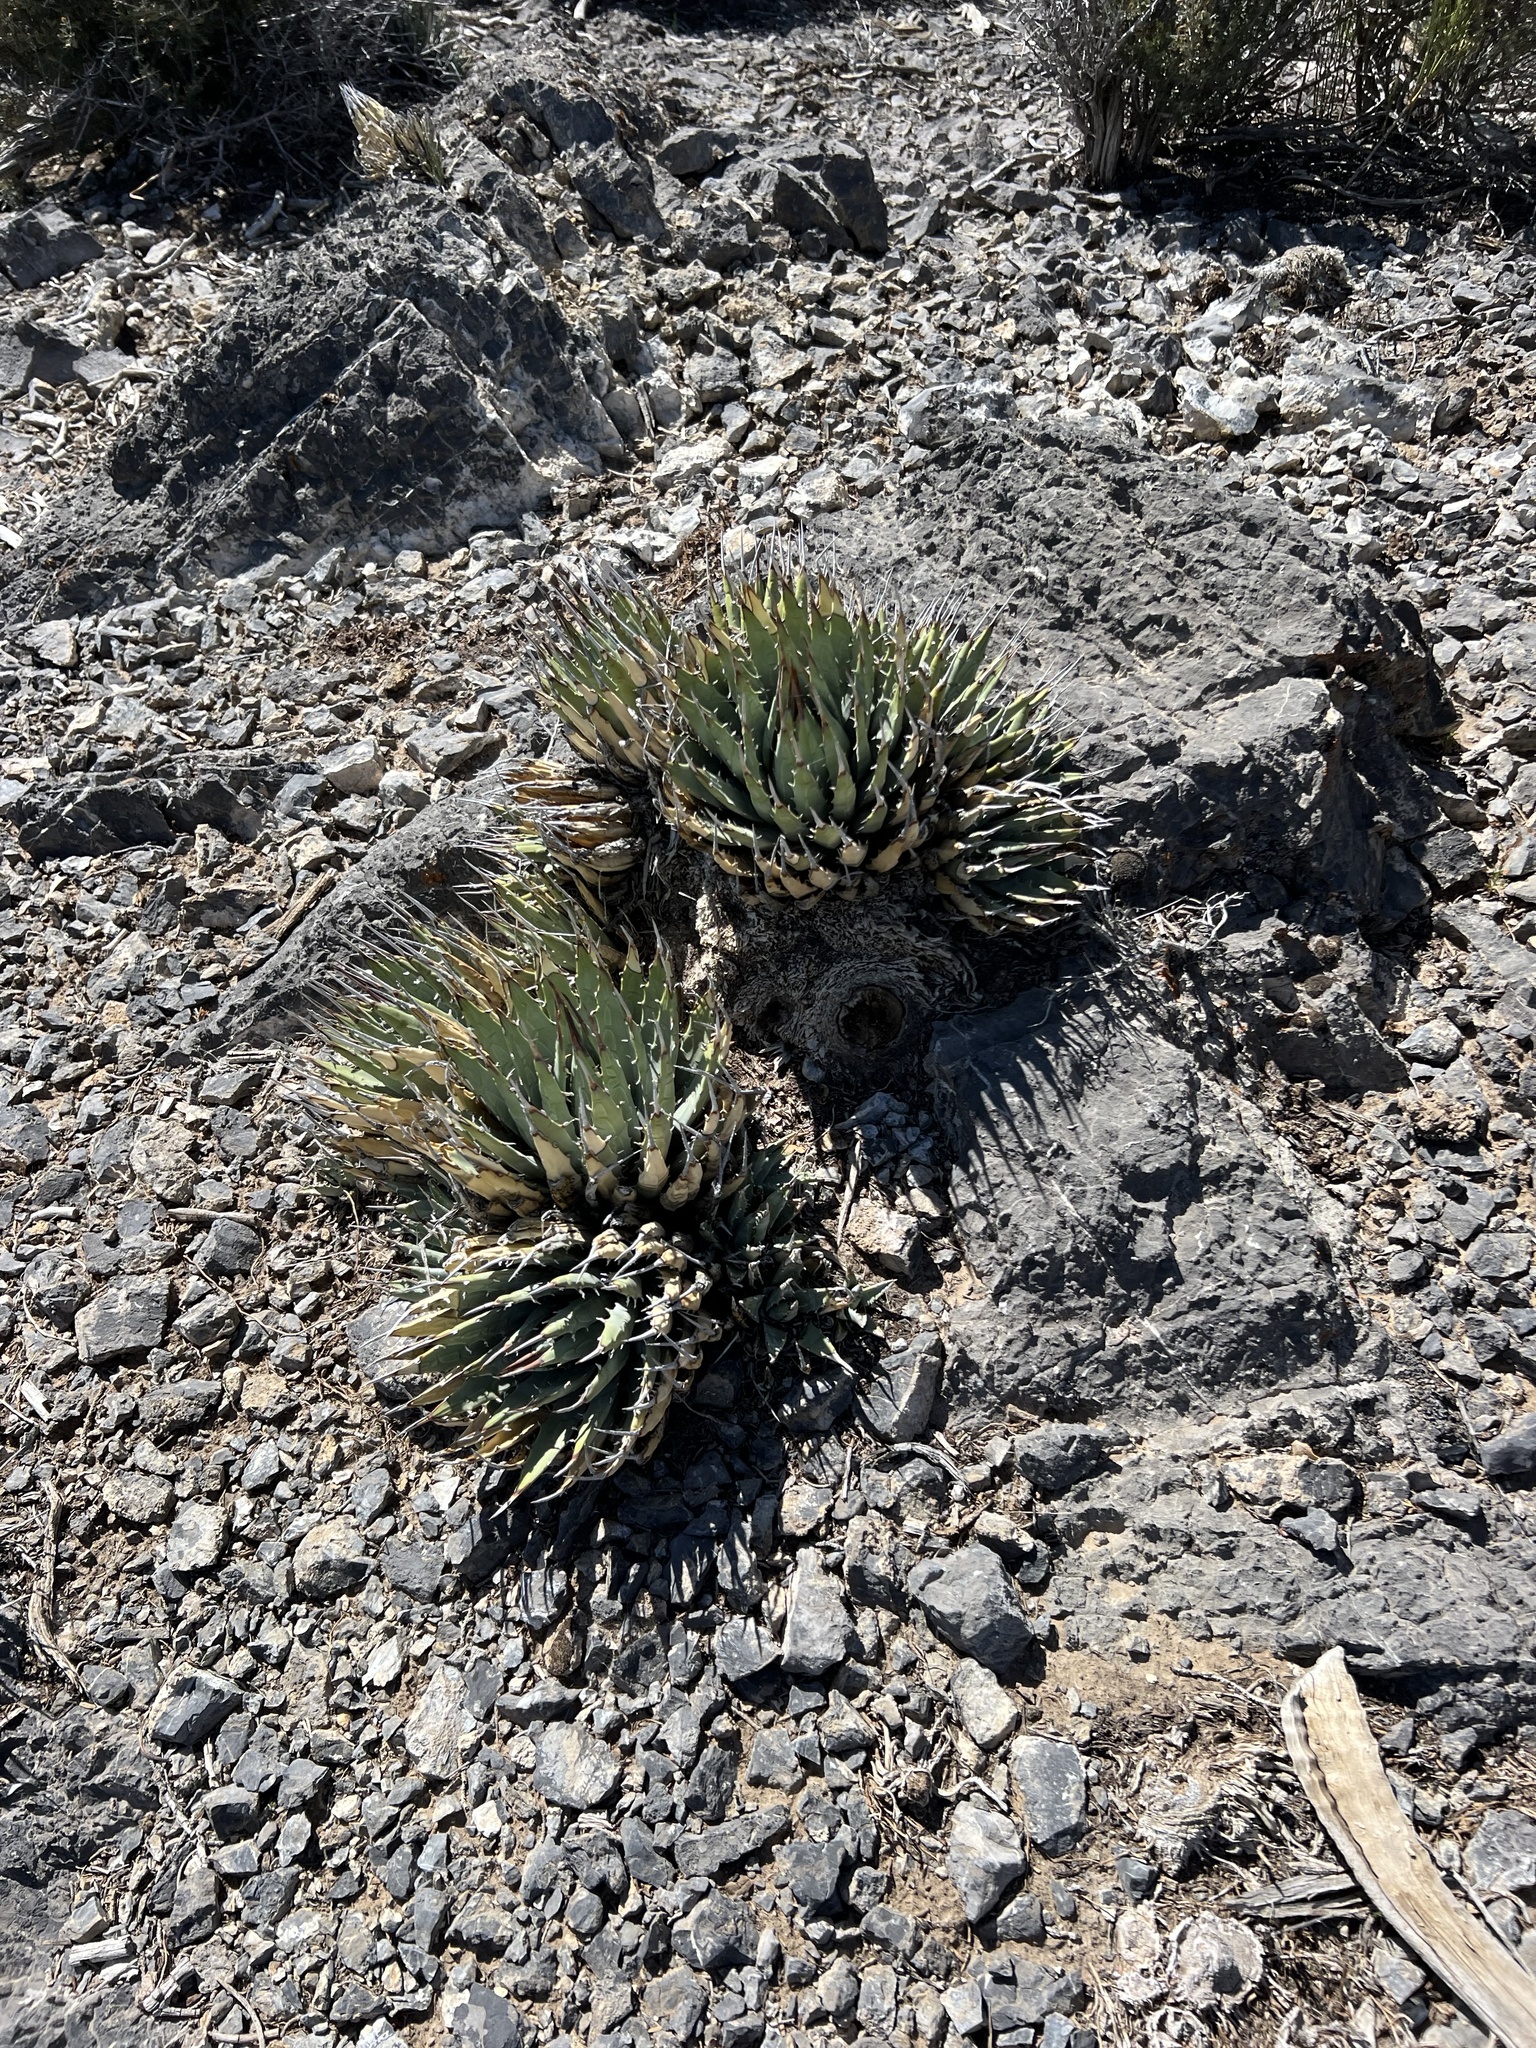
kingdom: Plantae
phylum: Tracheophyta
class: Liliopsida
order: Asparagales
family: Asparagaceae
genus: Agave
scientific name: Agave utahensis
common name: Utah agave
